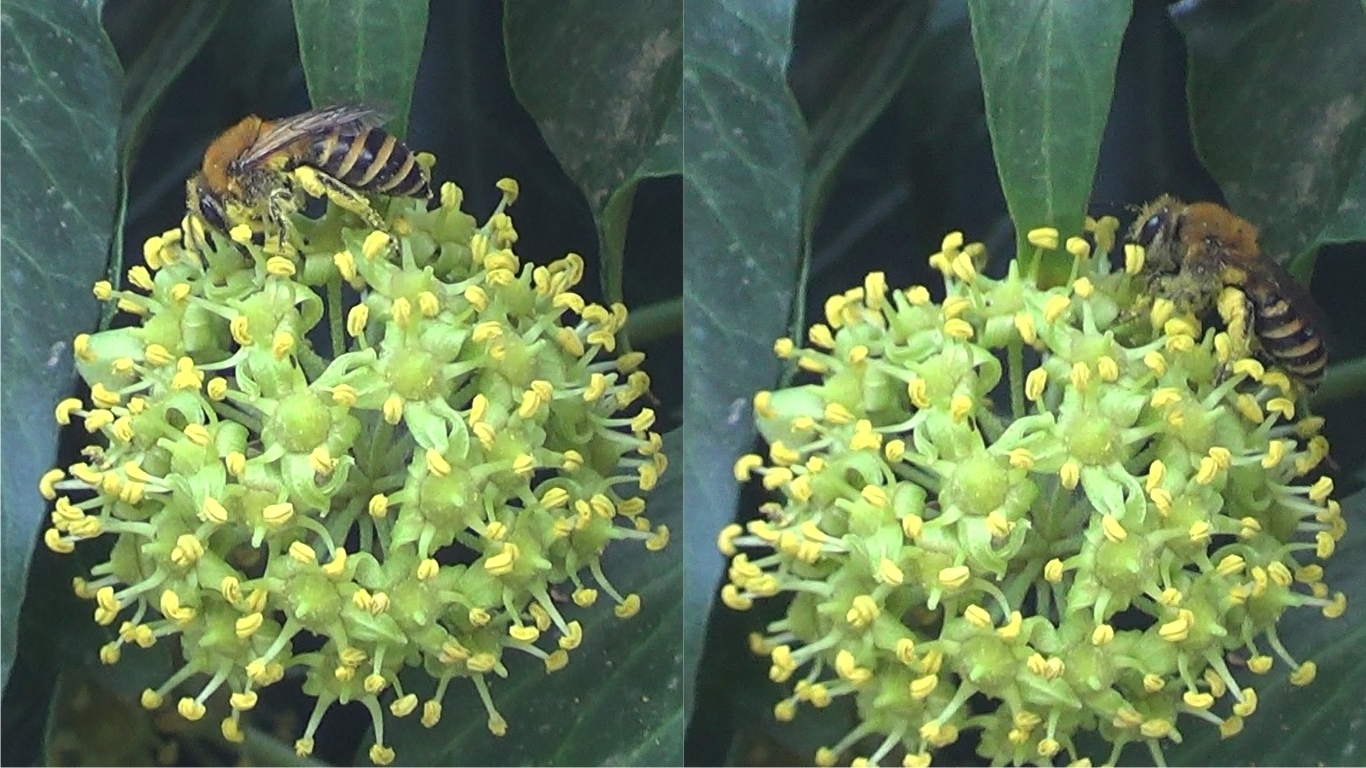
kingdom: Animalia
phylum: Arthropoda
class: Insecta
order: Hymenoptera
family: Colletidae
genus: Colletes
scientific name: Colletes hederae
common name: Ivy bee
